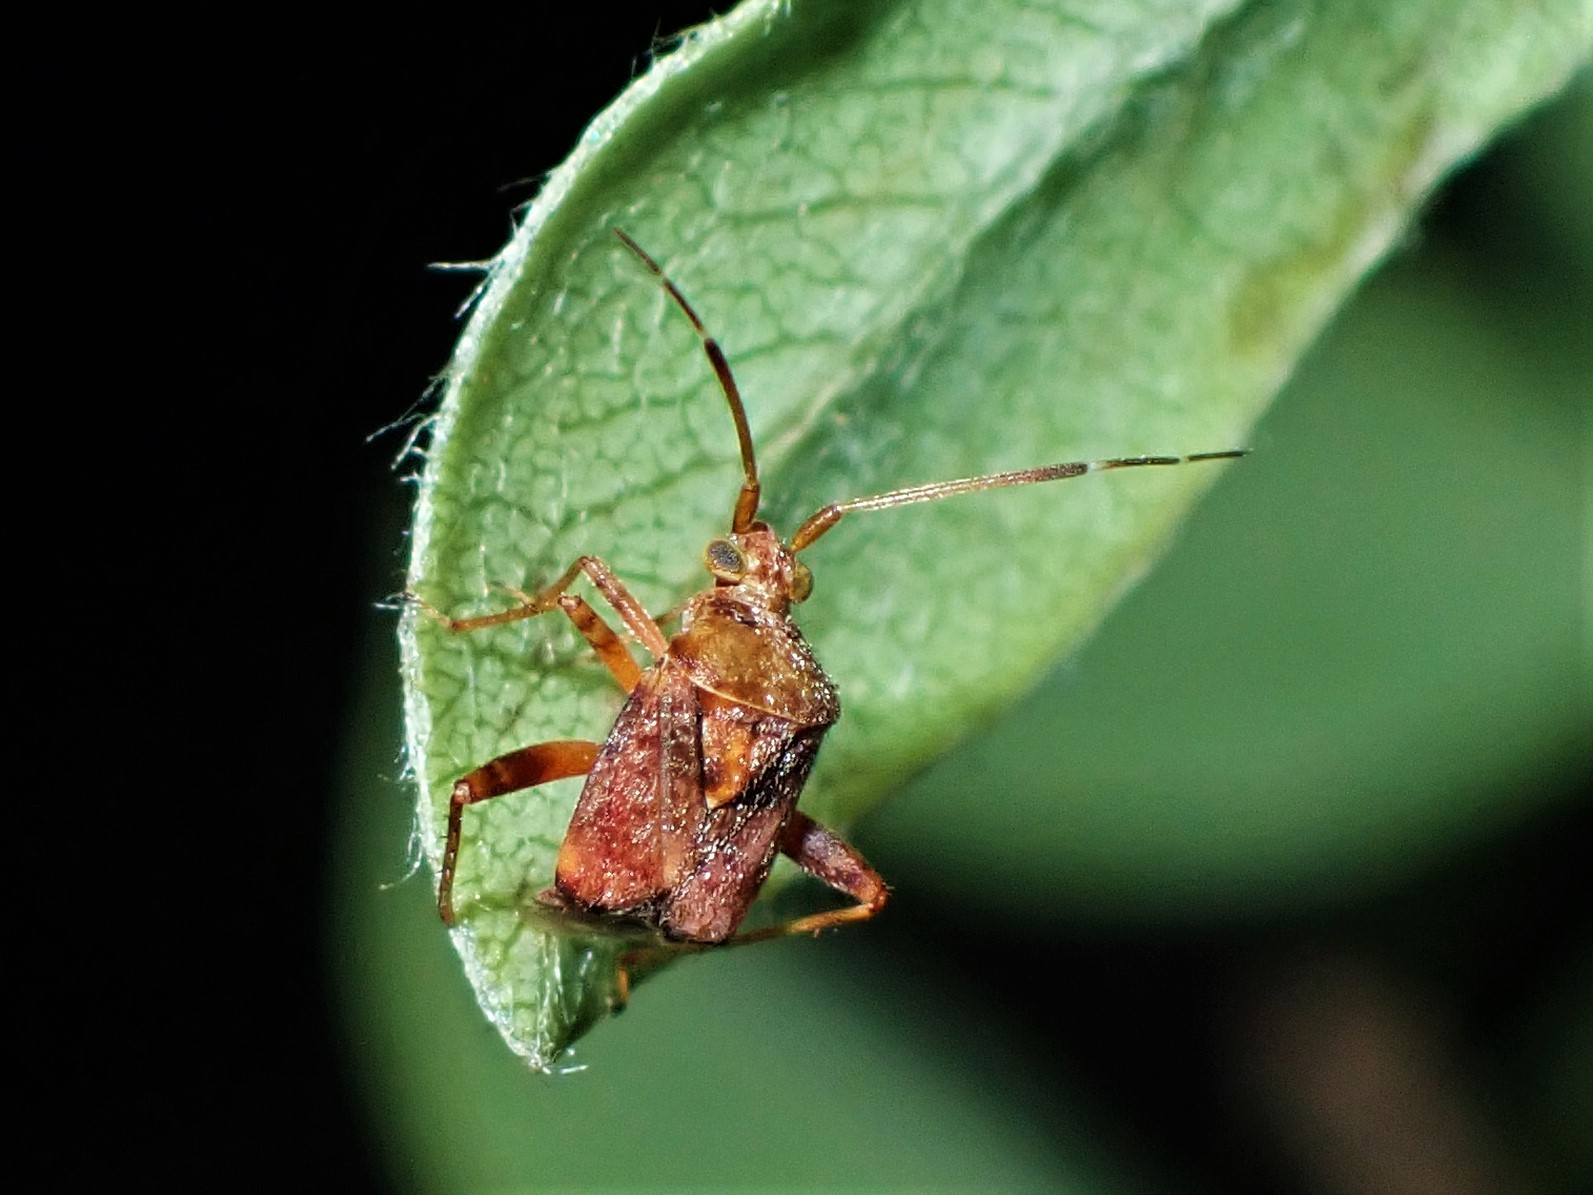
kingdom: Animalia
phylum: Arthropoda
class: Insecta
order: Hemiptera
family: Miridae
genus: Sidnia
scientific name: Sidnia kinbergi
